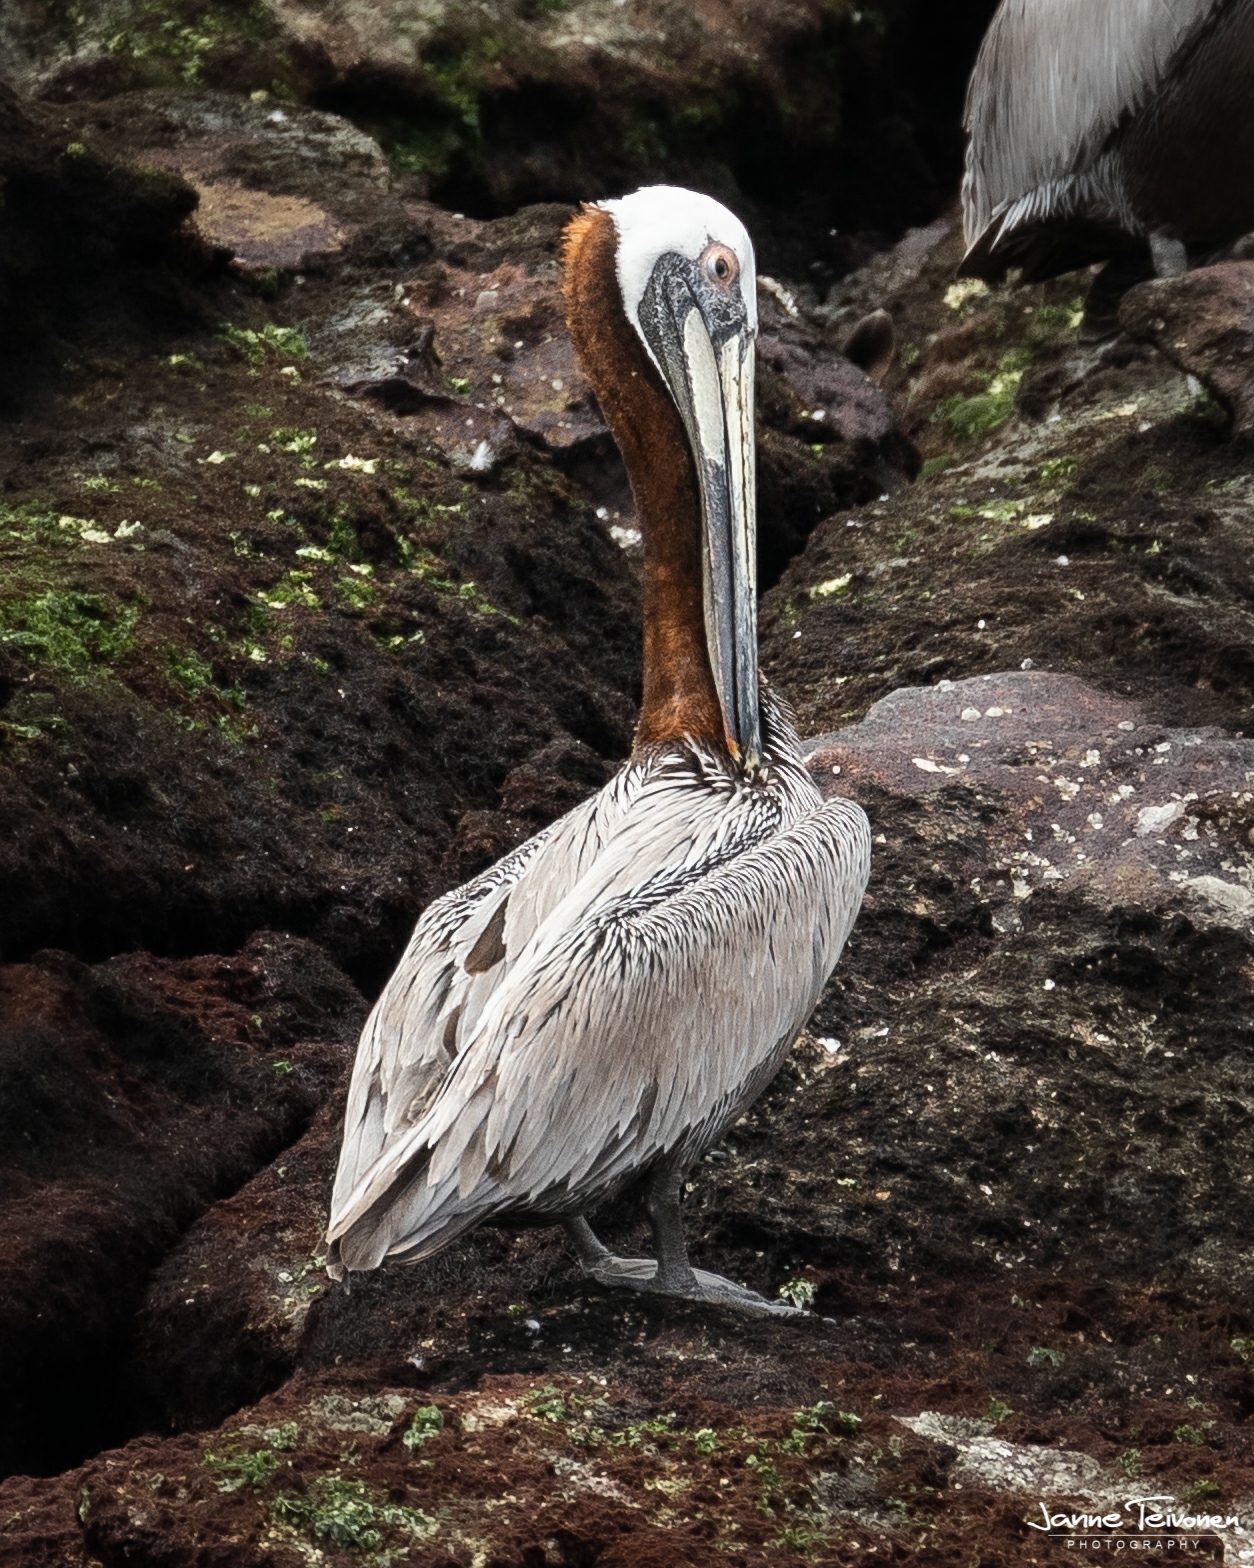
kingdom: Animalia
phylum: Chordata
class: Aves
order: Pelecaniformes
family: Pelecanidae
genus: Pelecanus
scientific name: Pelecanus occidentalis
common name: Brown pelican
